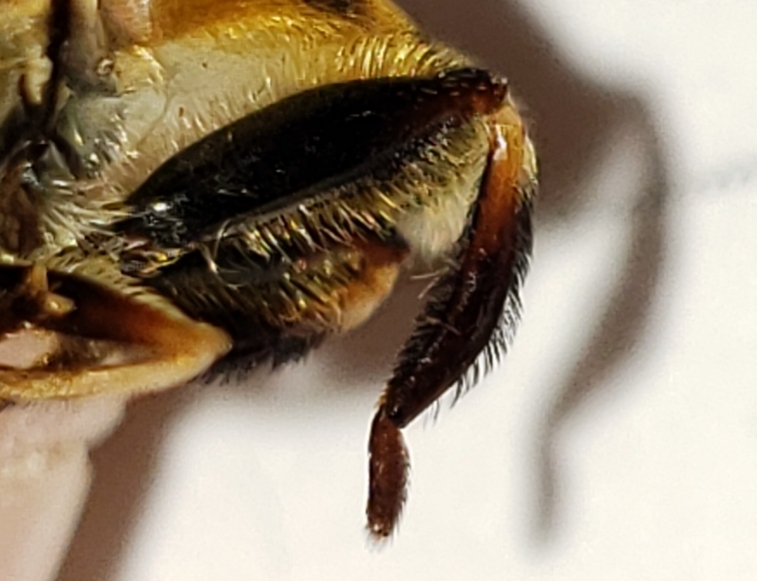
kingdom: Animalia
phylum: Arthropoda
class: Insecta
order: Diptera
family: Syrphidae
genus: Palpada
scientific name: Palpada vinetorum
